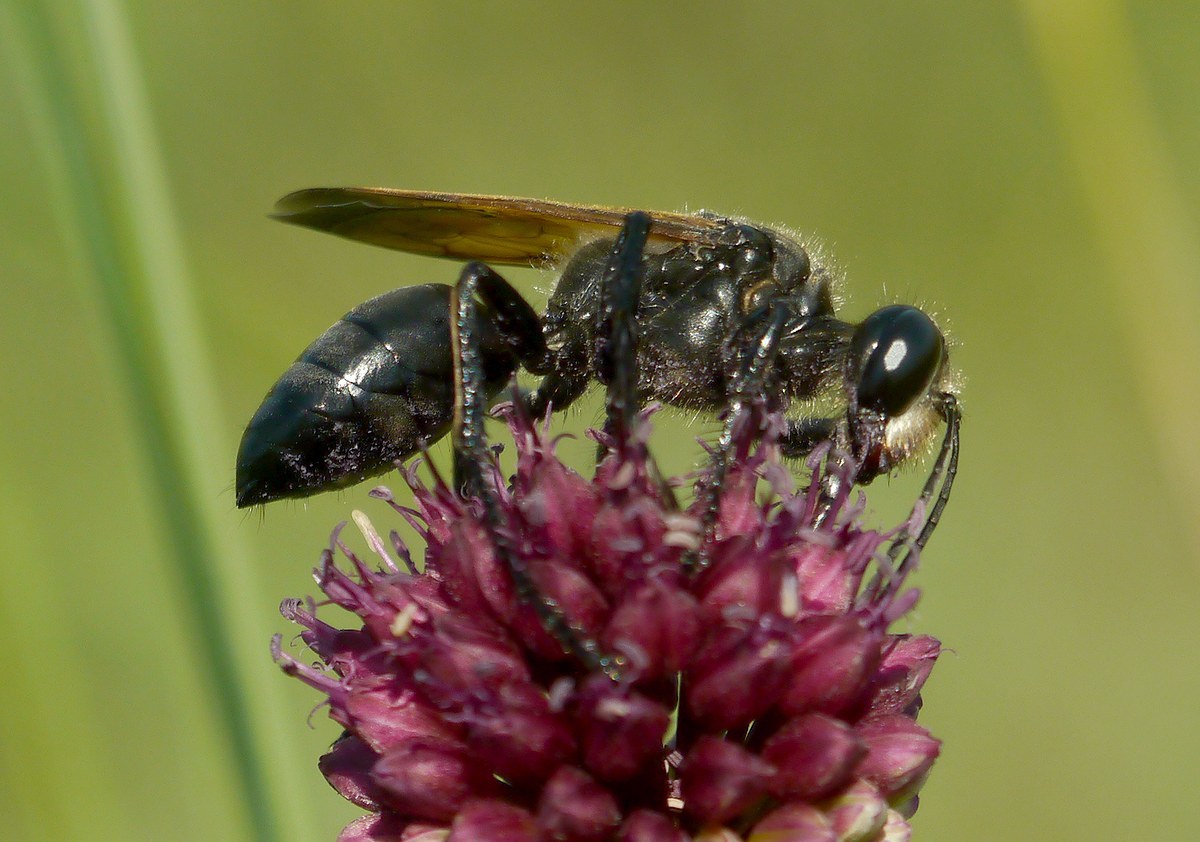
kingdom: Animalia
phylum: Arthropoda
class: Insecta
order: Hymenoptera
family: Sphecidae
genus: Sphex
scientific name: Sphex leuconotus
